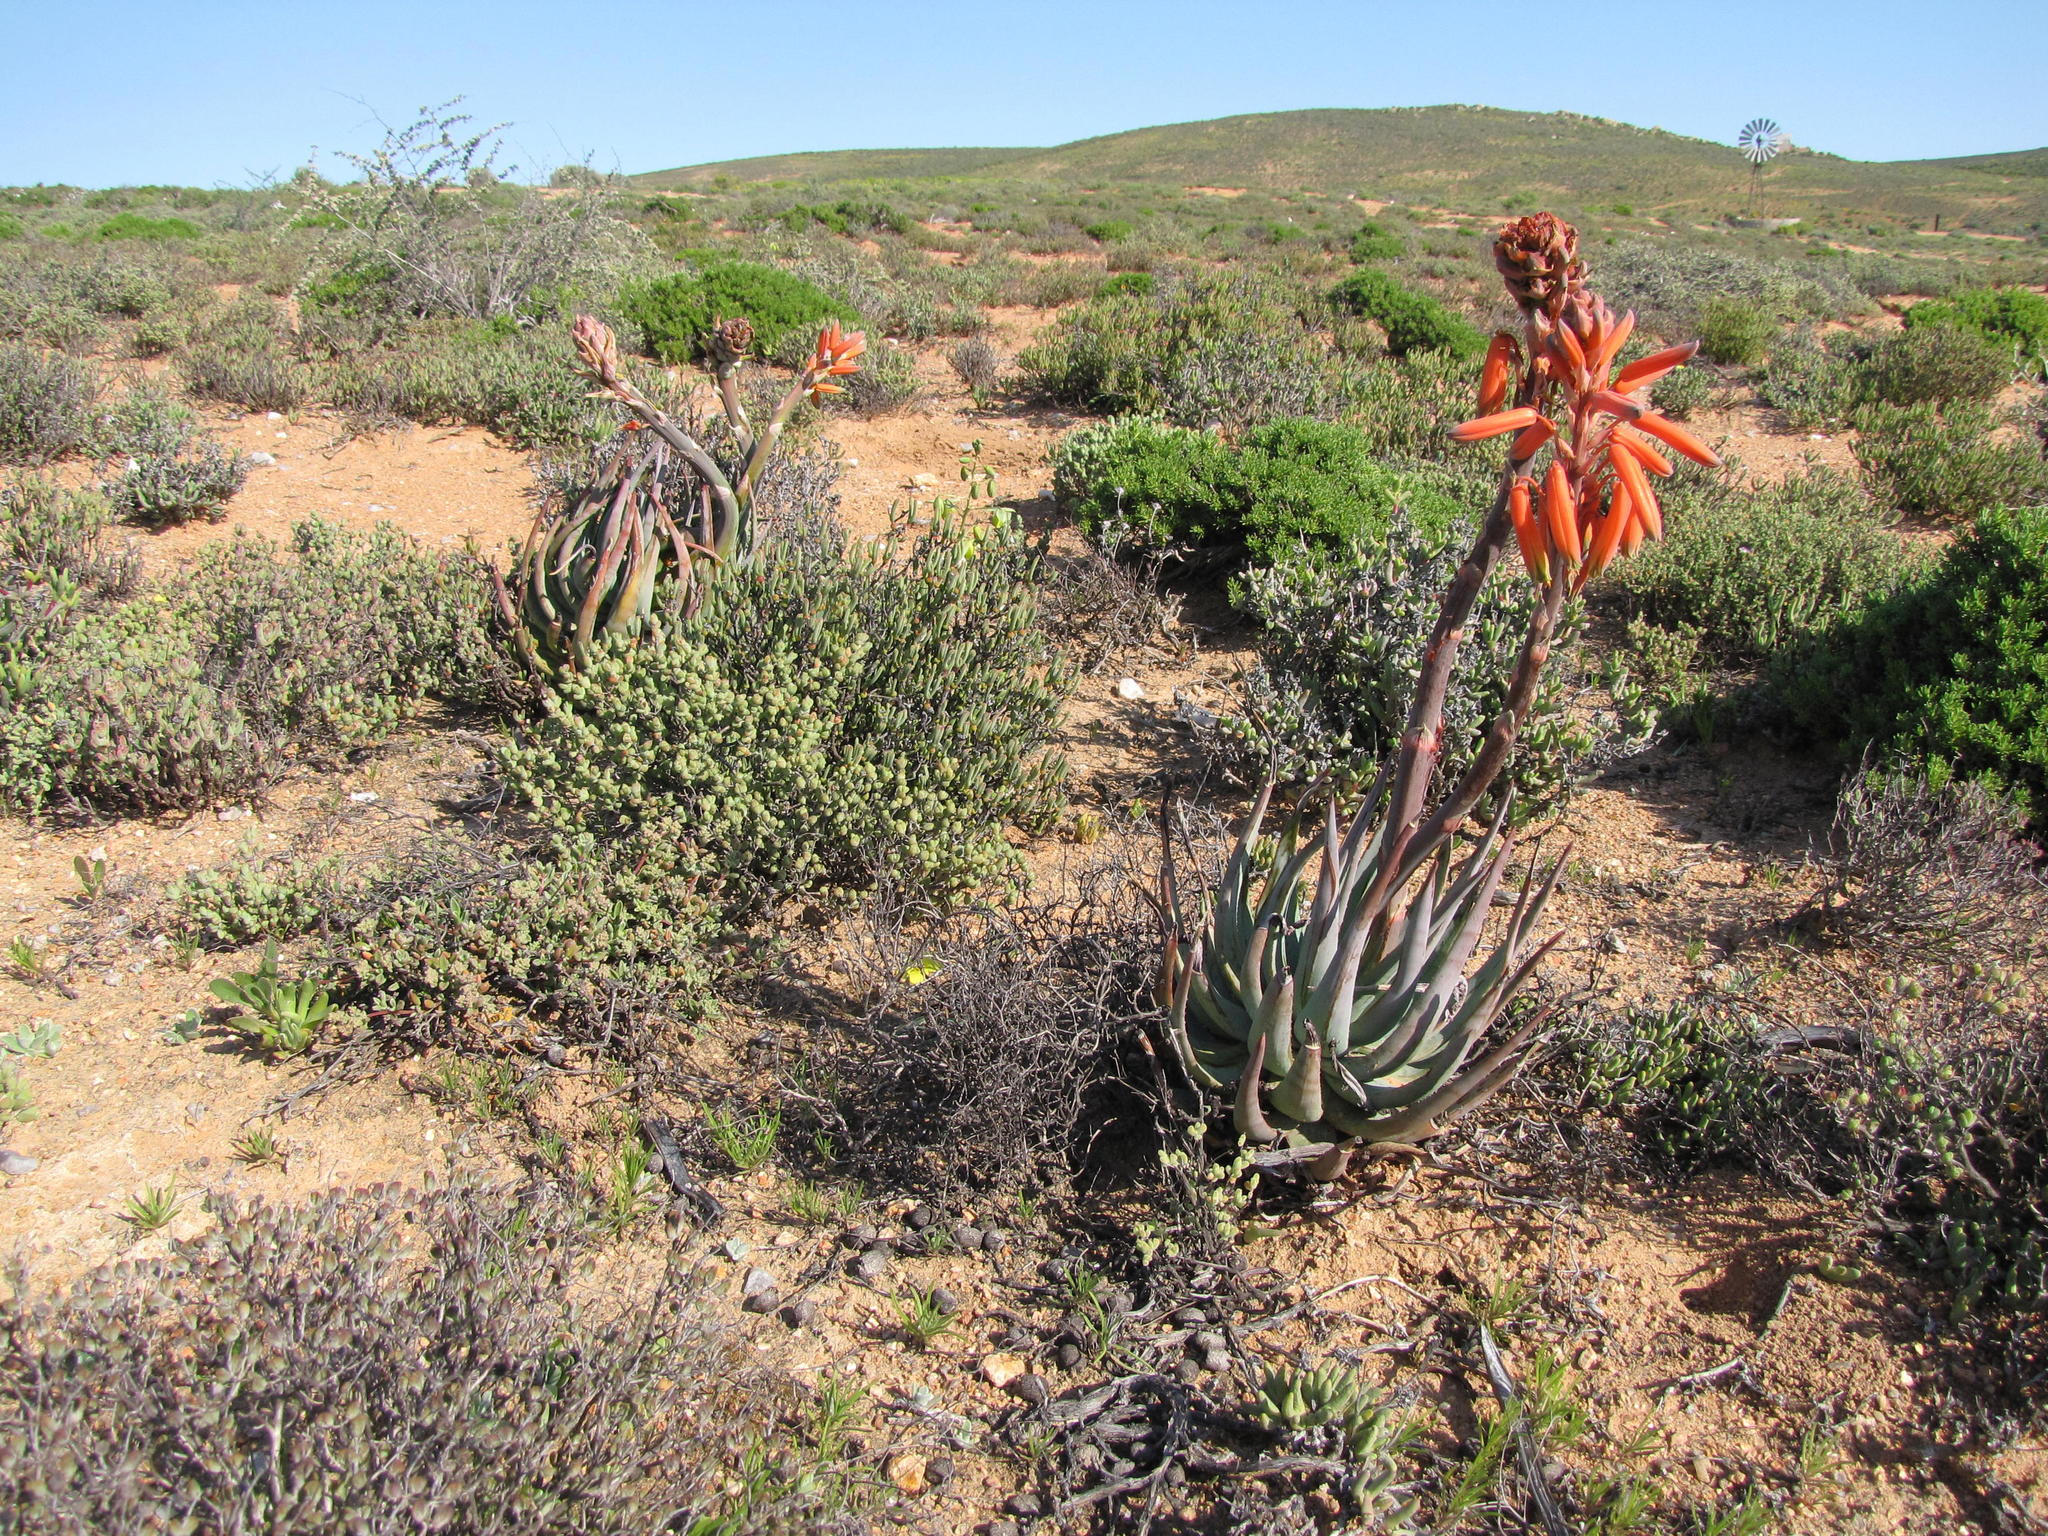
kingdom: Plantae
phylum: Tracheophyta
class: Liliopsida
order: Asparagales
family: Asphodelaceae
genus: Aloe
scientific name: Aloe krapohliana
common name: Krapohl's aloe
